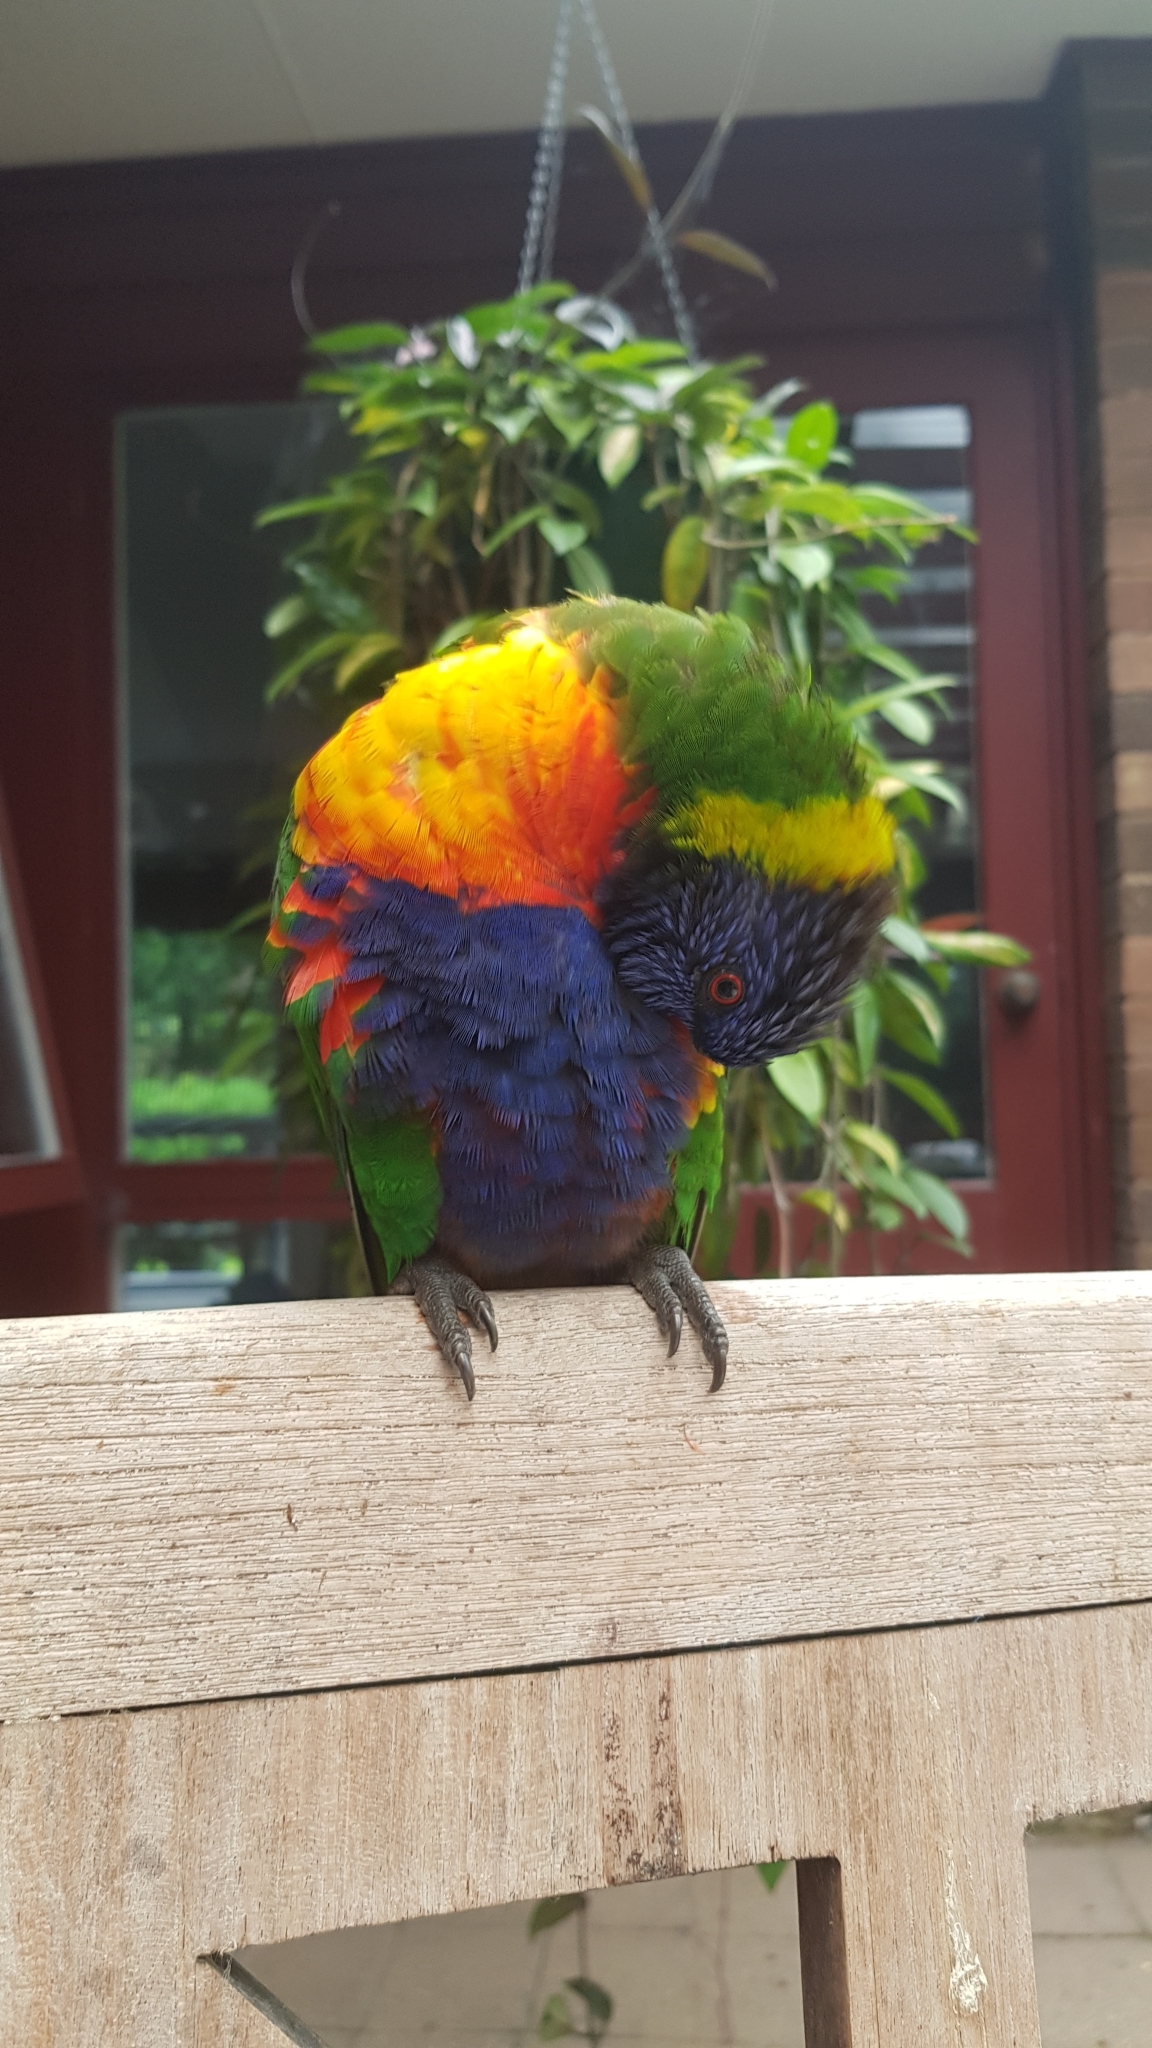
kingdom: Animalia
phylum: Chordata
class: Aves
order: Psittaciformes
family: Psittacidae
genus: Trichoglossus
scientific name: Trichoglossus haematodus
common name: Coconut lorikeet
